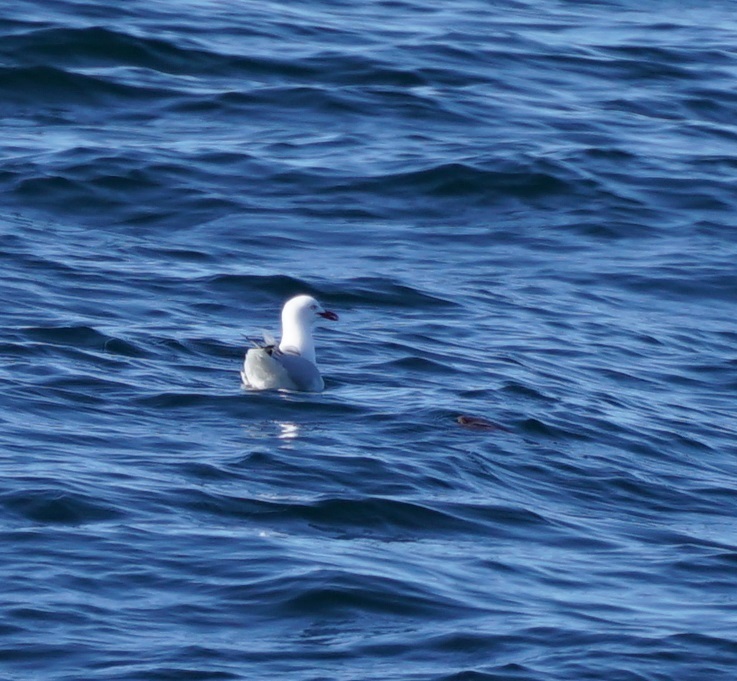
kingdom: Animalia
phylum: Chordata
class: Aves
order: Charadriiformes
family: Laridae
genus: Chroicocephalus
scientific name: Chroicocephalus novaehollandiae
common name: Silver gull
